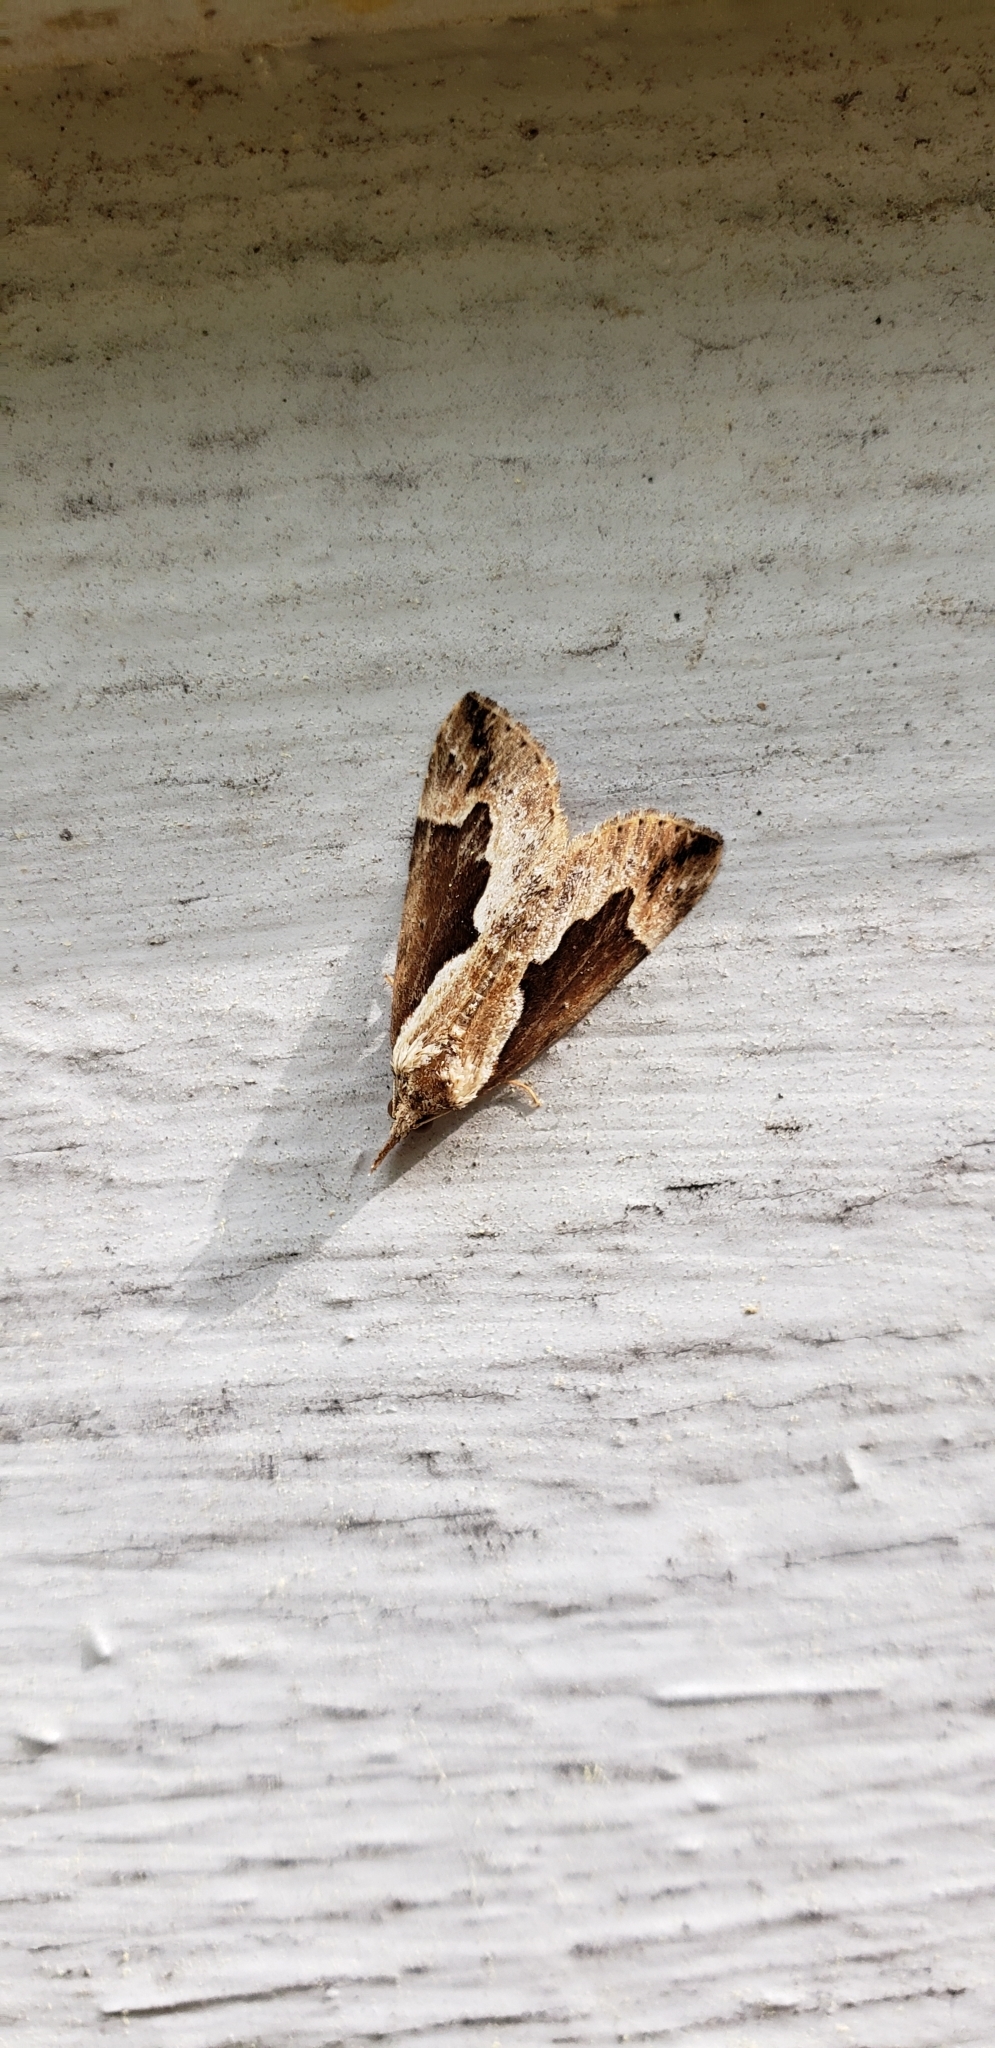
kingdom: Animalia
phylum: Arthropoda
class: Insecta
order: Lepidoptera
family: Erebidae
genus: Hypena
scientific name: Hypena baltimoralis
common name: Baltimore snout
